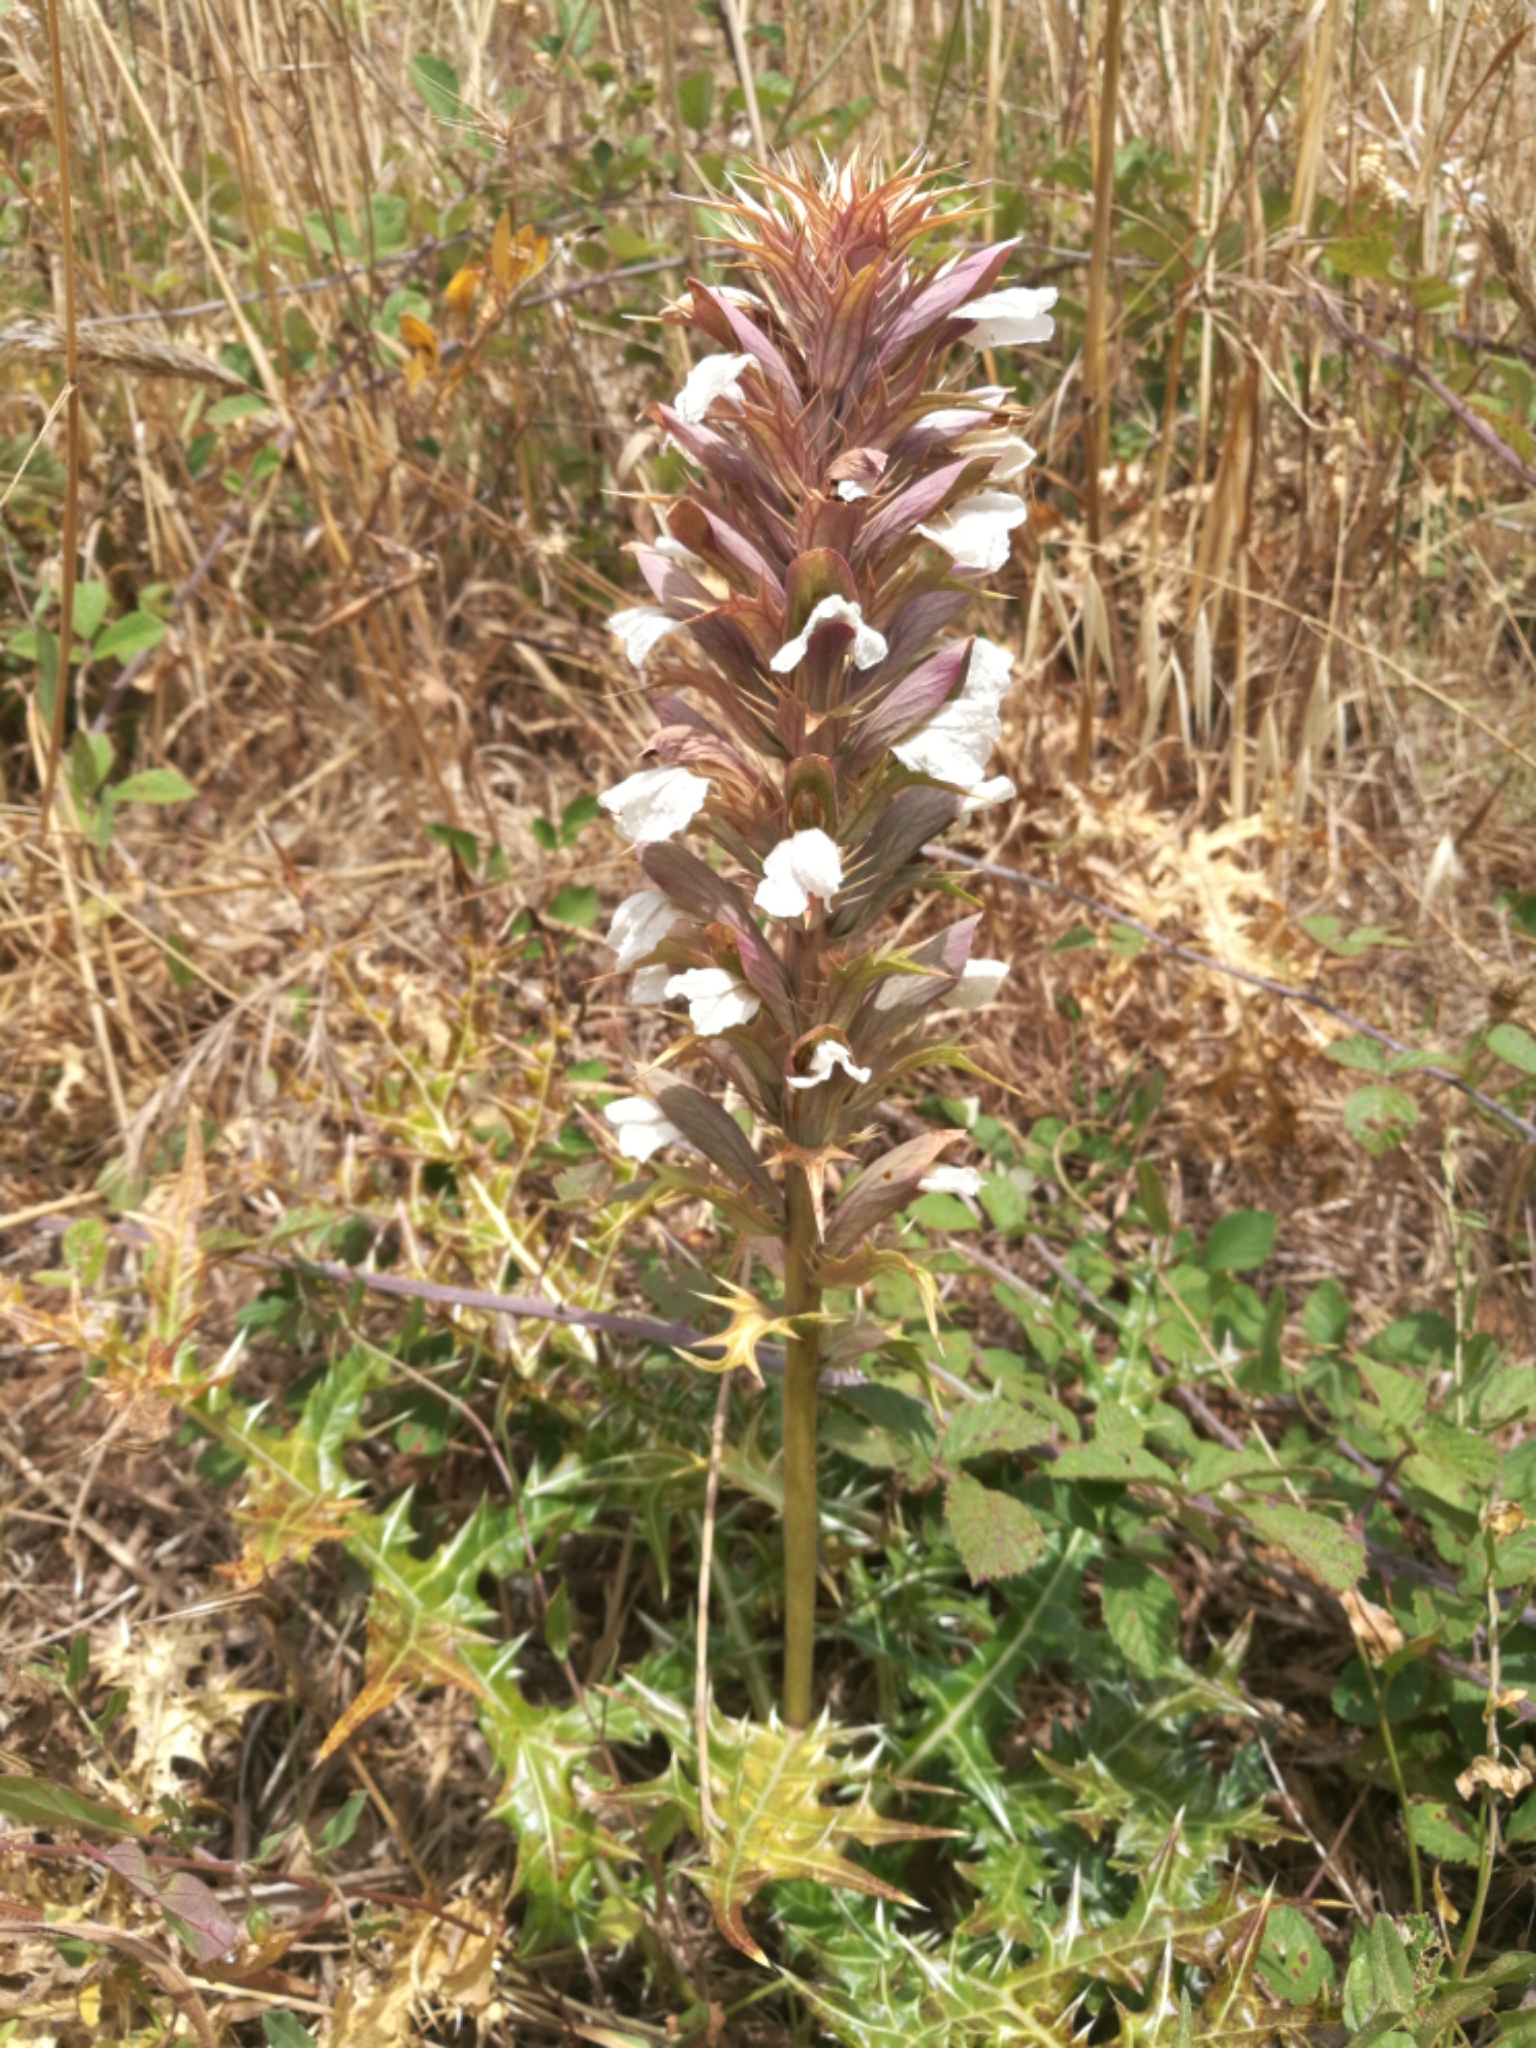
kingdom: Plantae
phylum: Tracheophyta
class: Magnoliopsida
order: Lamiales
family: Acanthaceae
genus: Acanthus
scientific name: Acanthus spinosus
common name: Spiny bear's-breech
